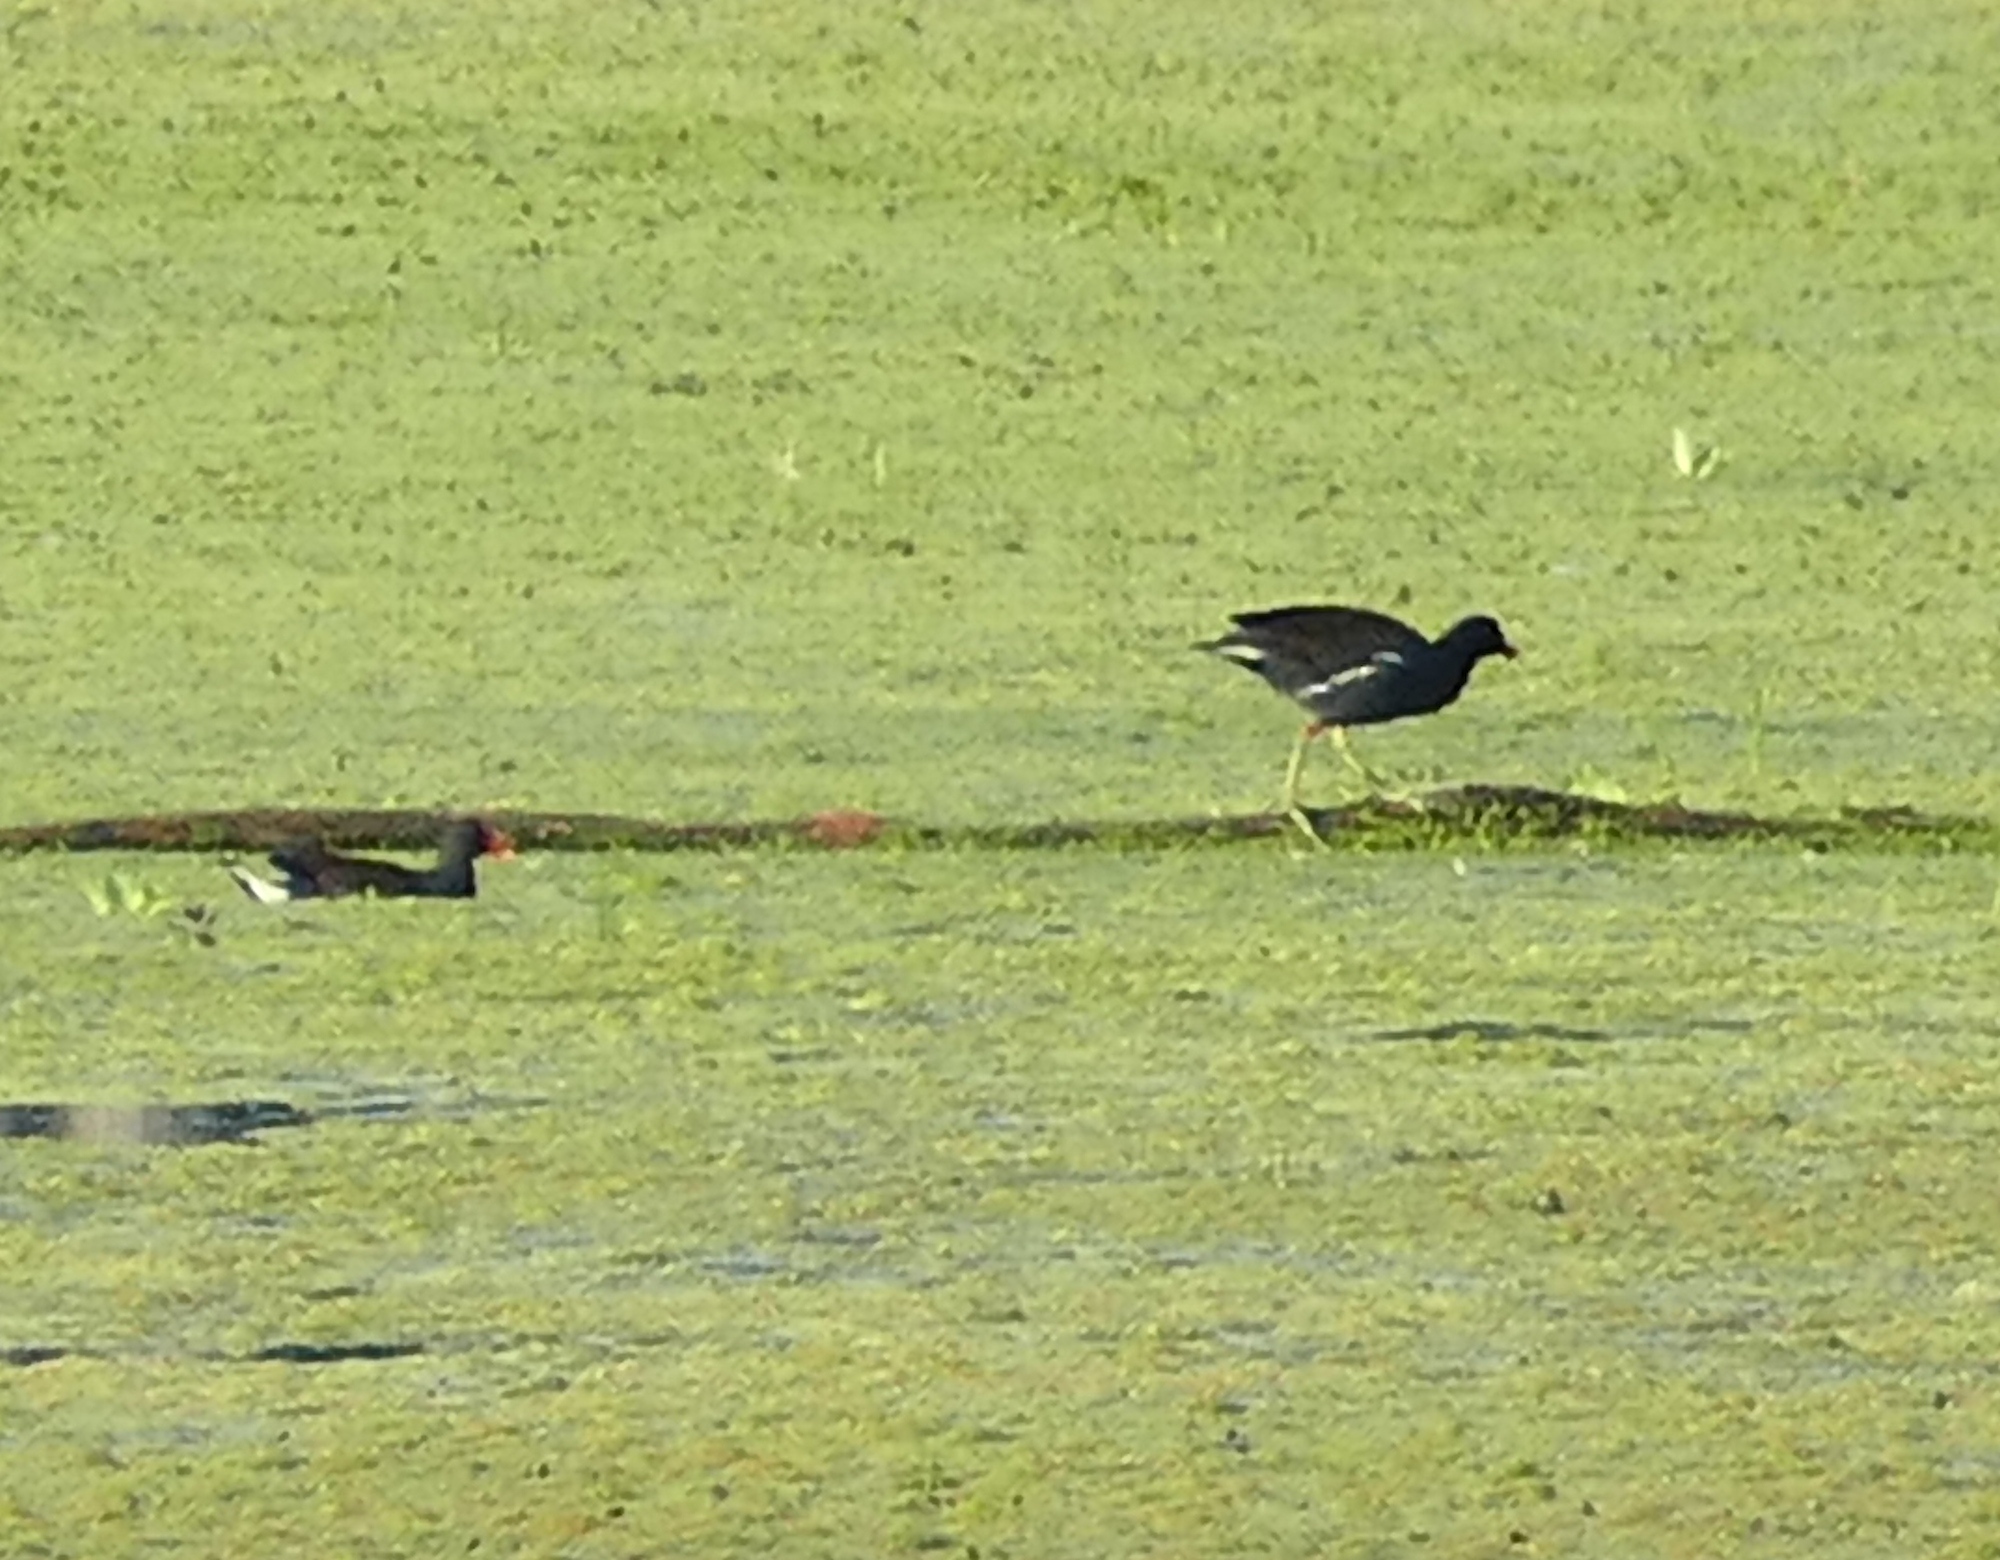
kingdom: Animalia
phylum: Chordata
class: Aves
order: Gruiformes
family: Rallidae
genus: Gallinula
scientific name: Gallinula chloropus
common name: Common moorhen
